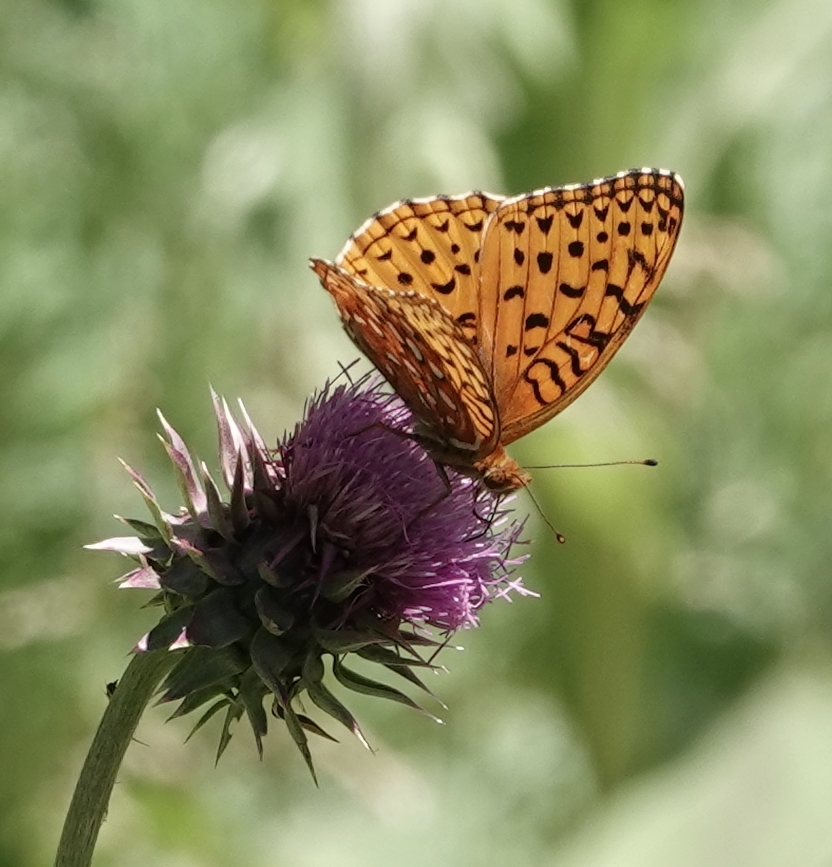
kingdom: Animalia
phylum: Arthropoda
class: Insecta
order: Lepidoptera
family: Nymphalidae
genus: Speyeria
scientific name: Speyeria aphrodite
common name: Aphrodite friitllary
